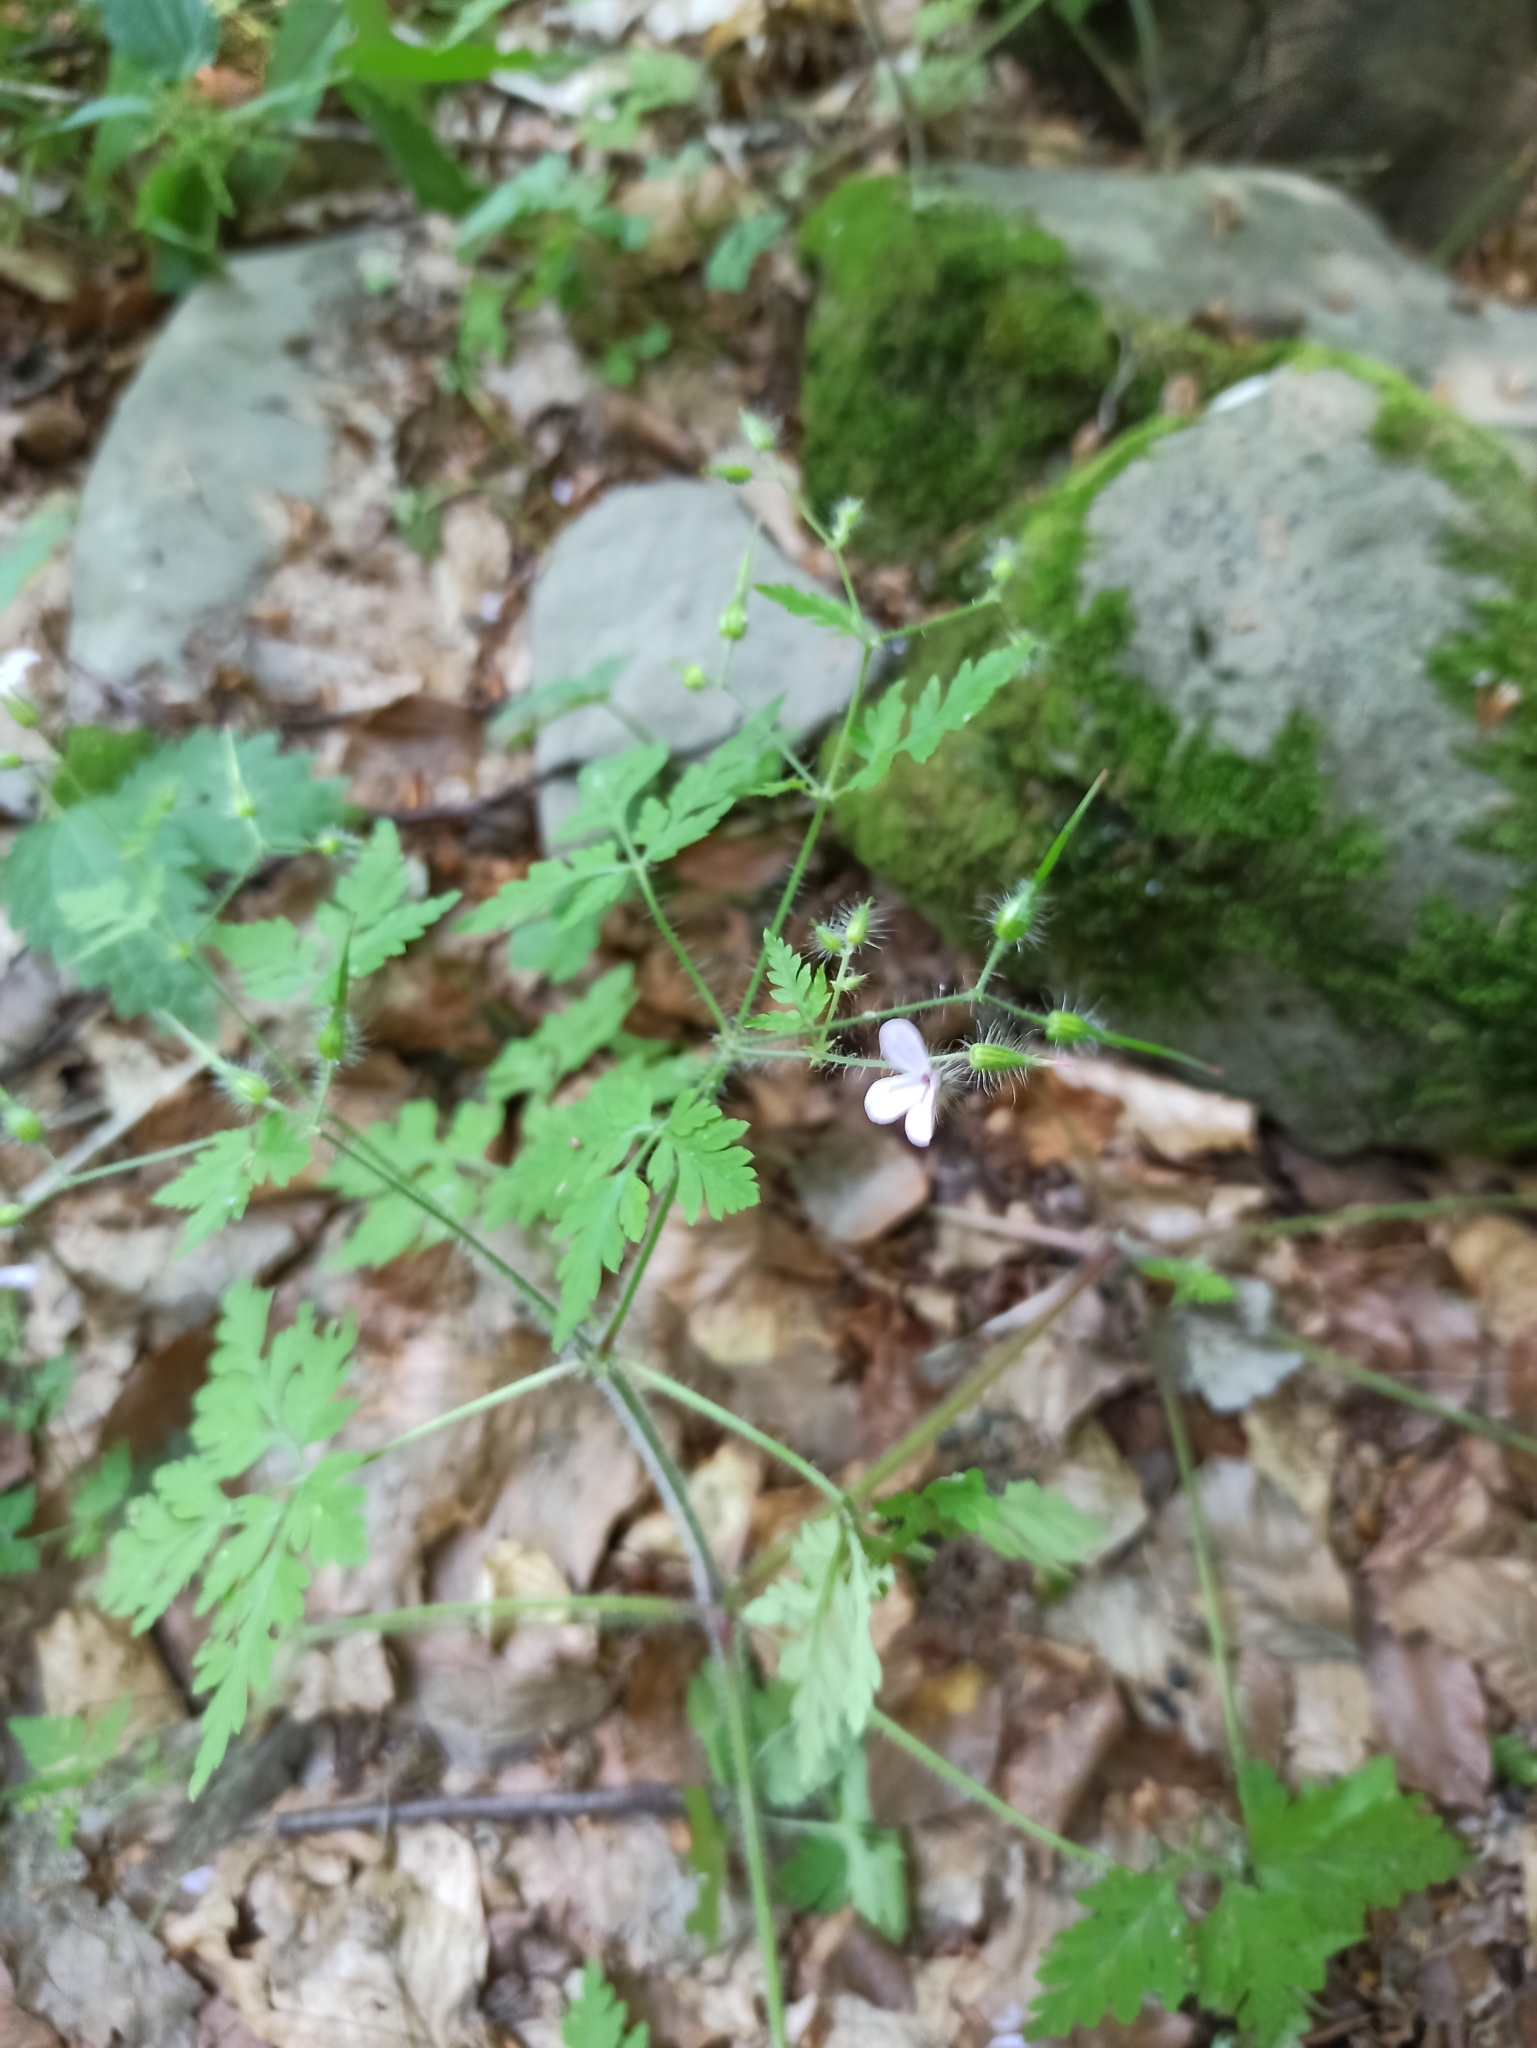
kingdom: Plantae
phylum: Tracheophyta
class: Magnoliopsida
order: Geraniales
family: Geraniaceae
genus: Geranium
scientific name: Geranium robertianum
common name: Herb-robert
